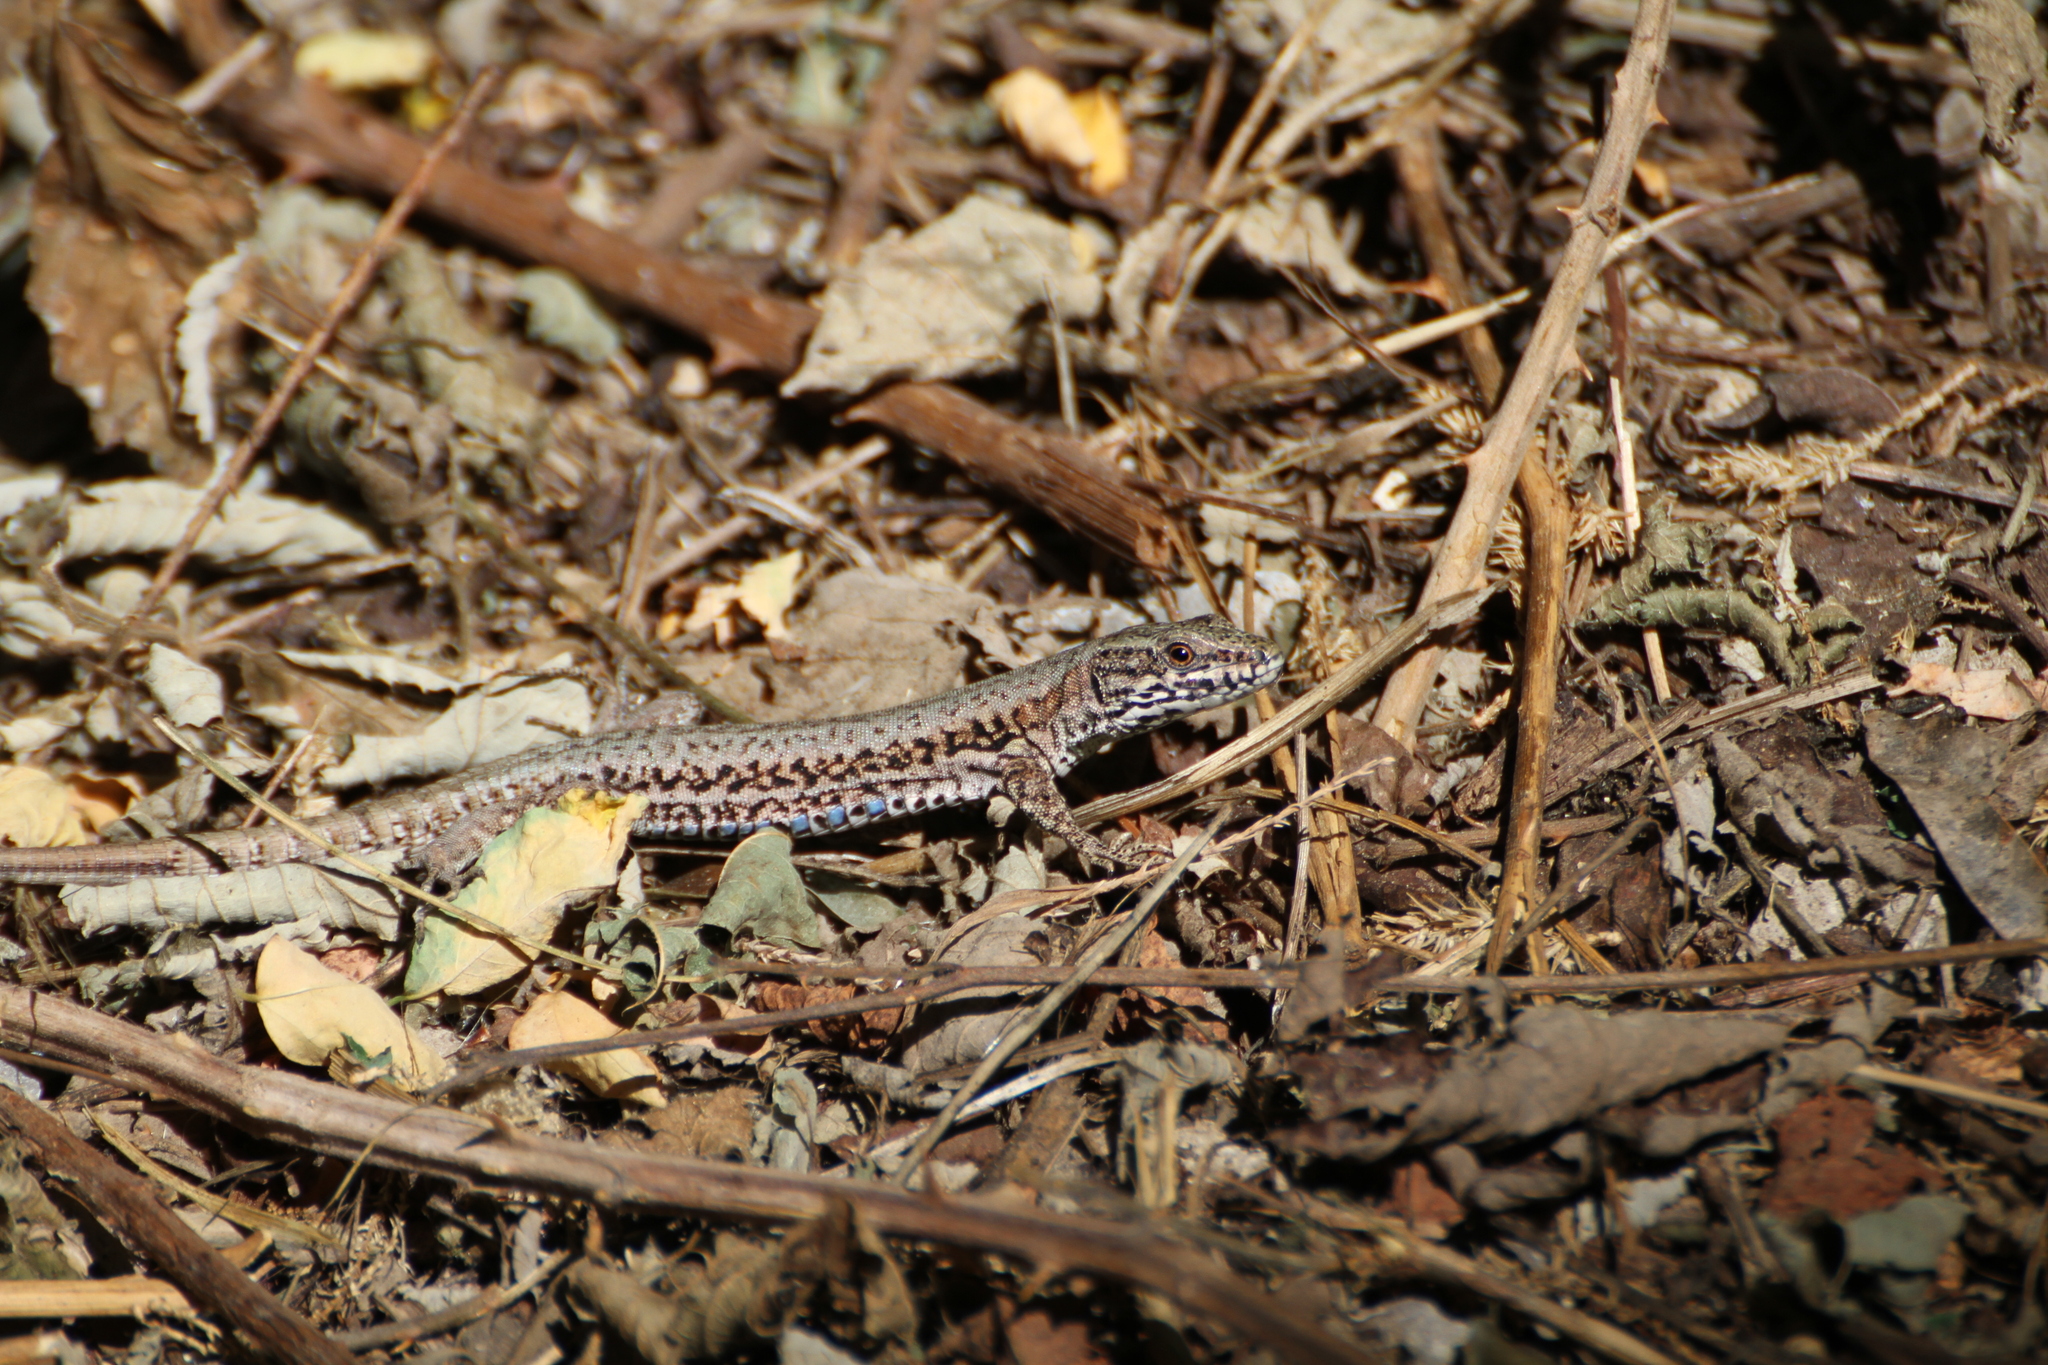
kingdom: Animalia
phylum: Chordata
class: Squamata
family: Lacertidae
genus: Podarcis
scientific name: Podarcis muralis
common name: Common wall lizard
